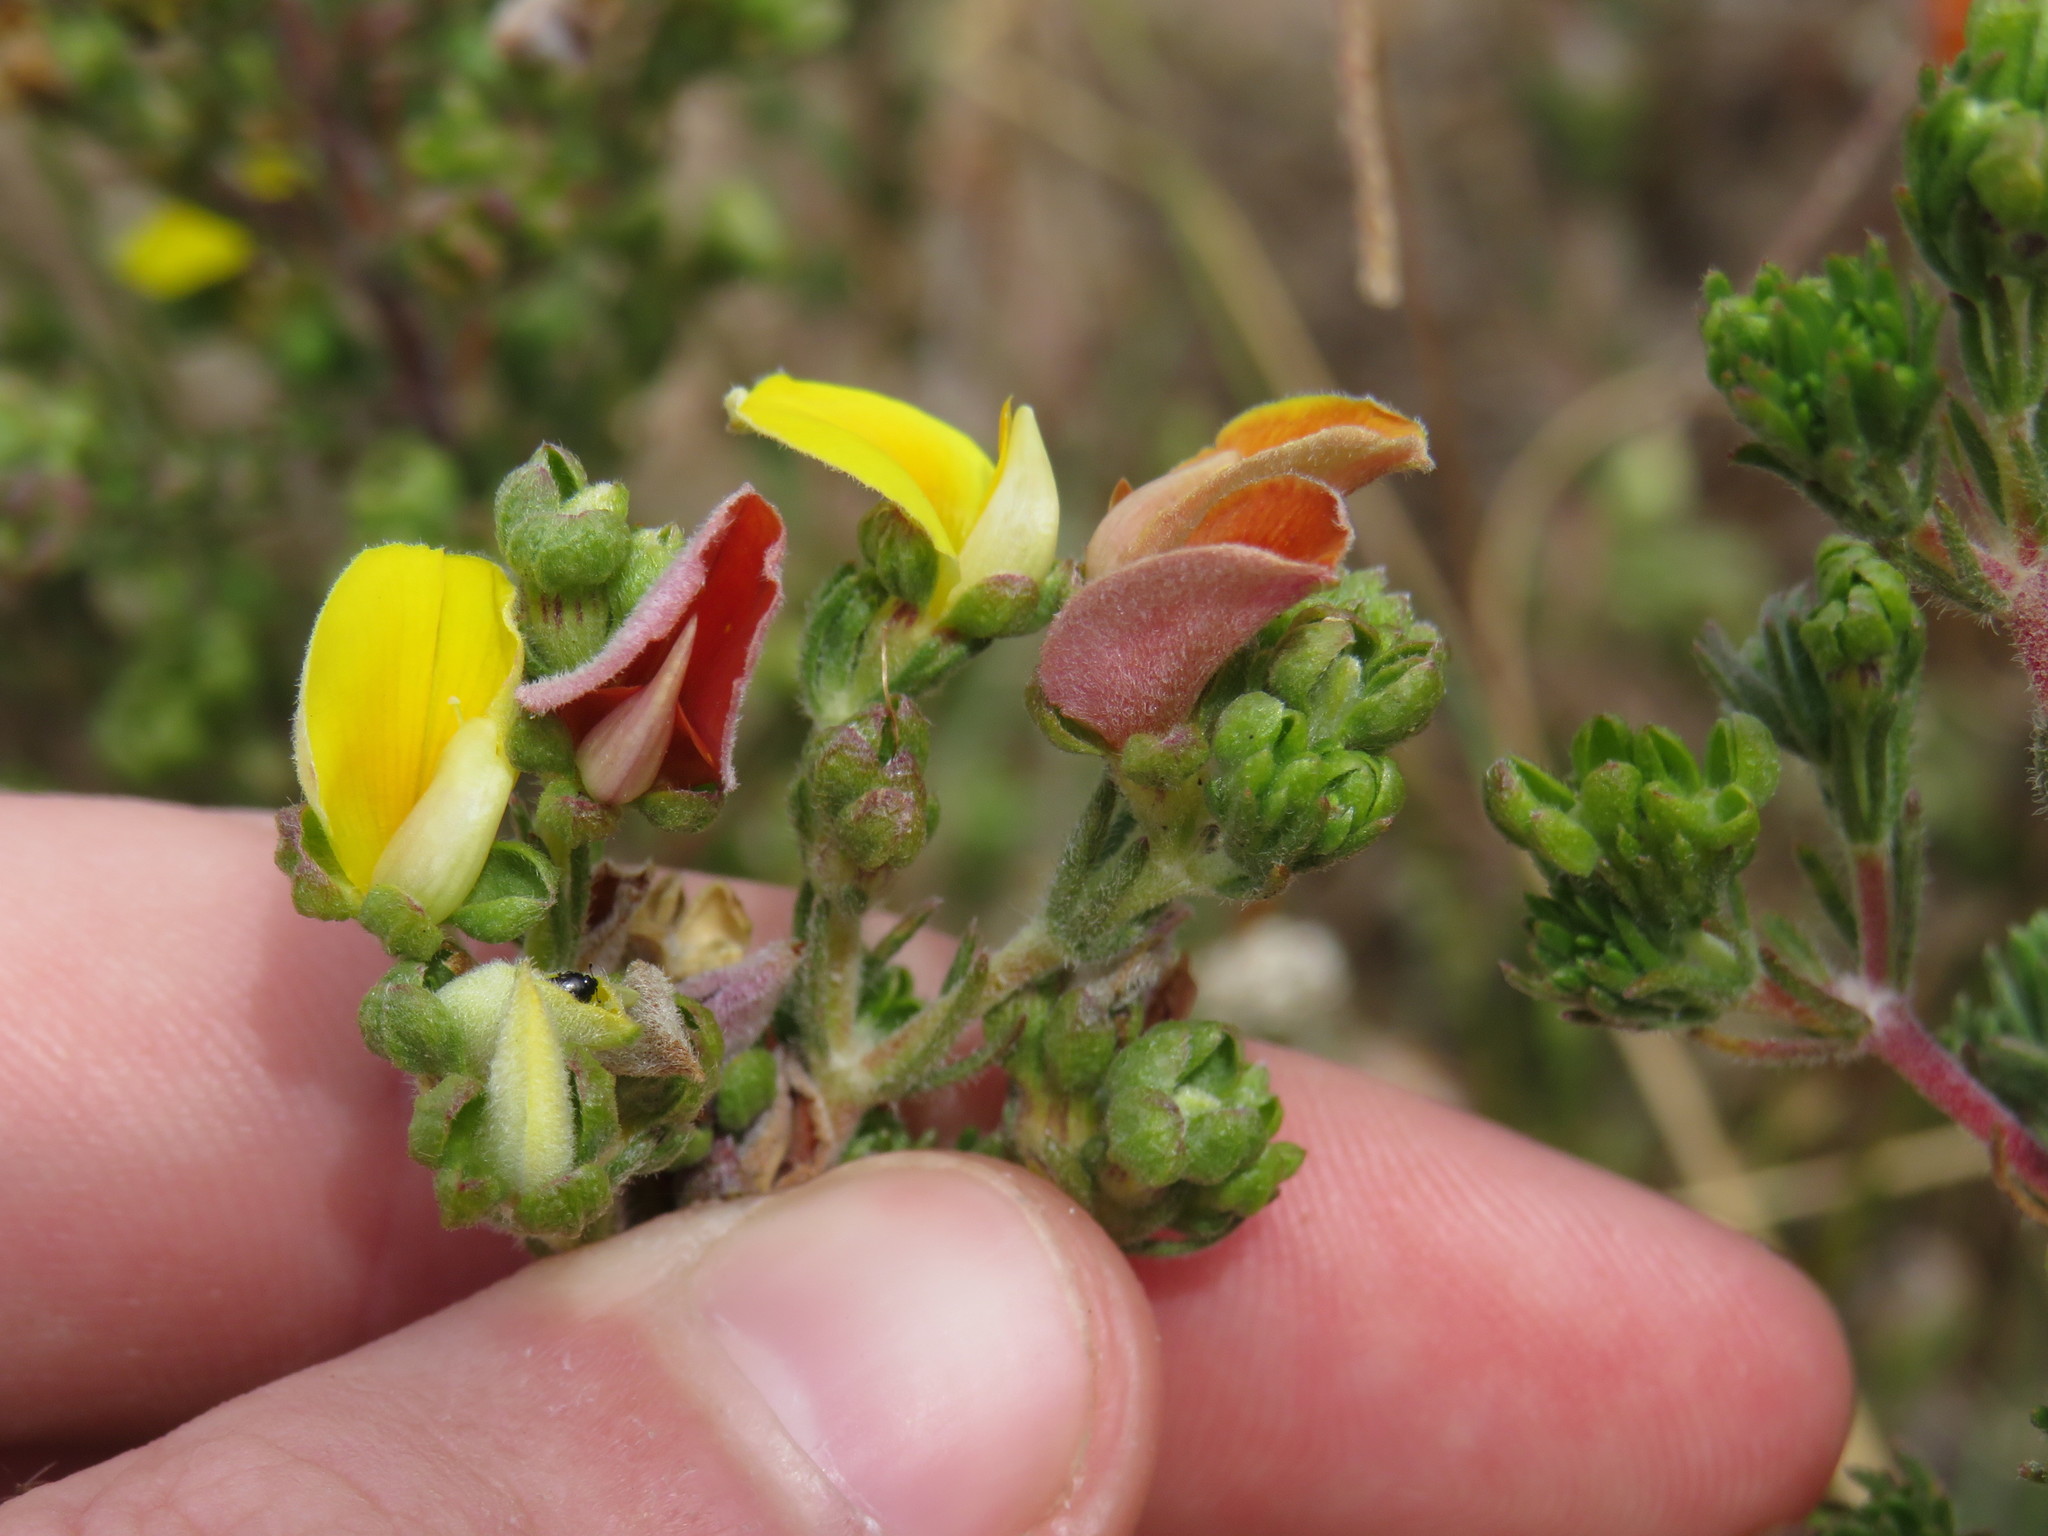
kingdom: Plantae
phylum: Tracheophyta
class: Magnoliopsida
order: Fabales
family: Fabaceae
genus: Aspalathus
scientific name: Aspalathus cymbiformis
